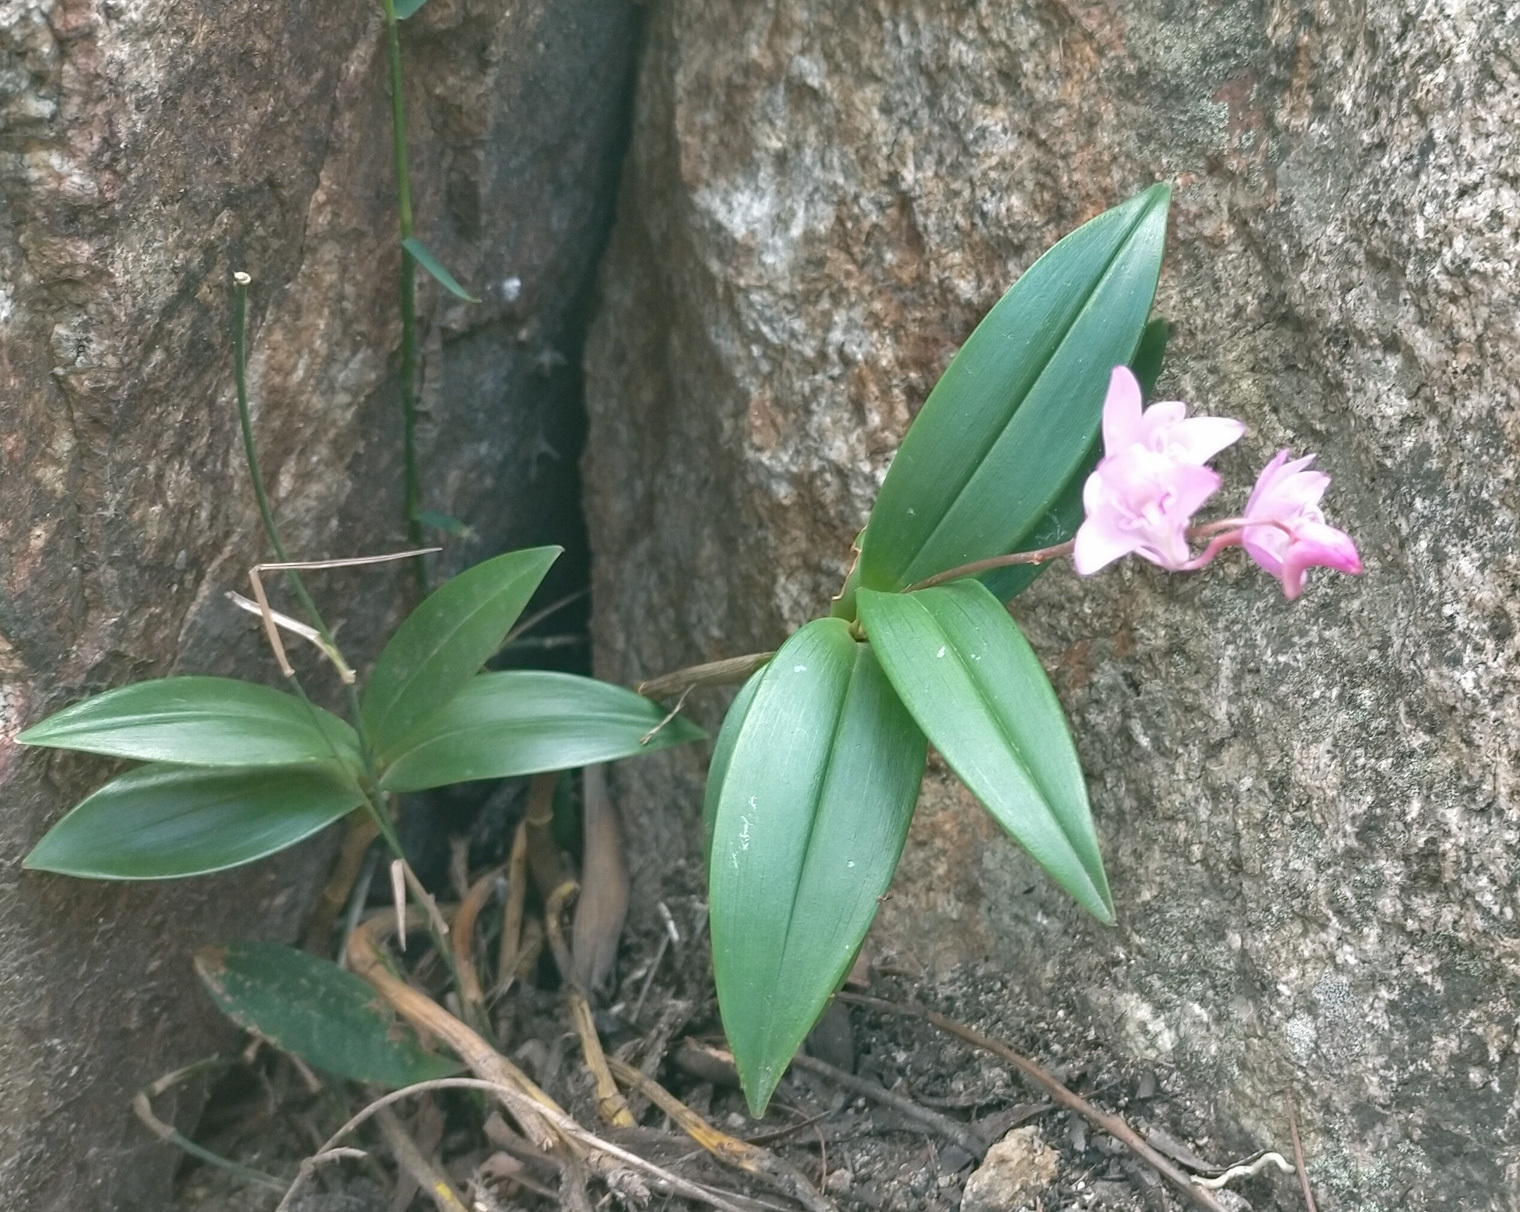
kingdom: Plantae
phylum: Tracheophyta
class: Liliopsida
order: Asparagales
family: Orchidaceae
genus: Dendrobium
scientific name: Dendrobium kingianum
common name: Pink rock orchid
